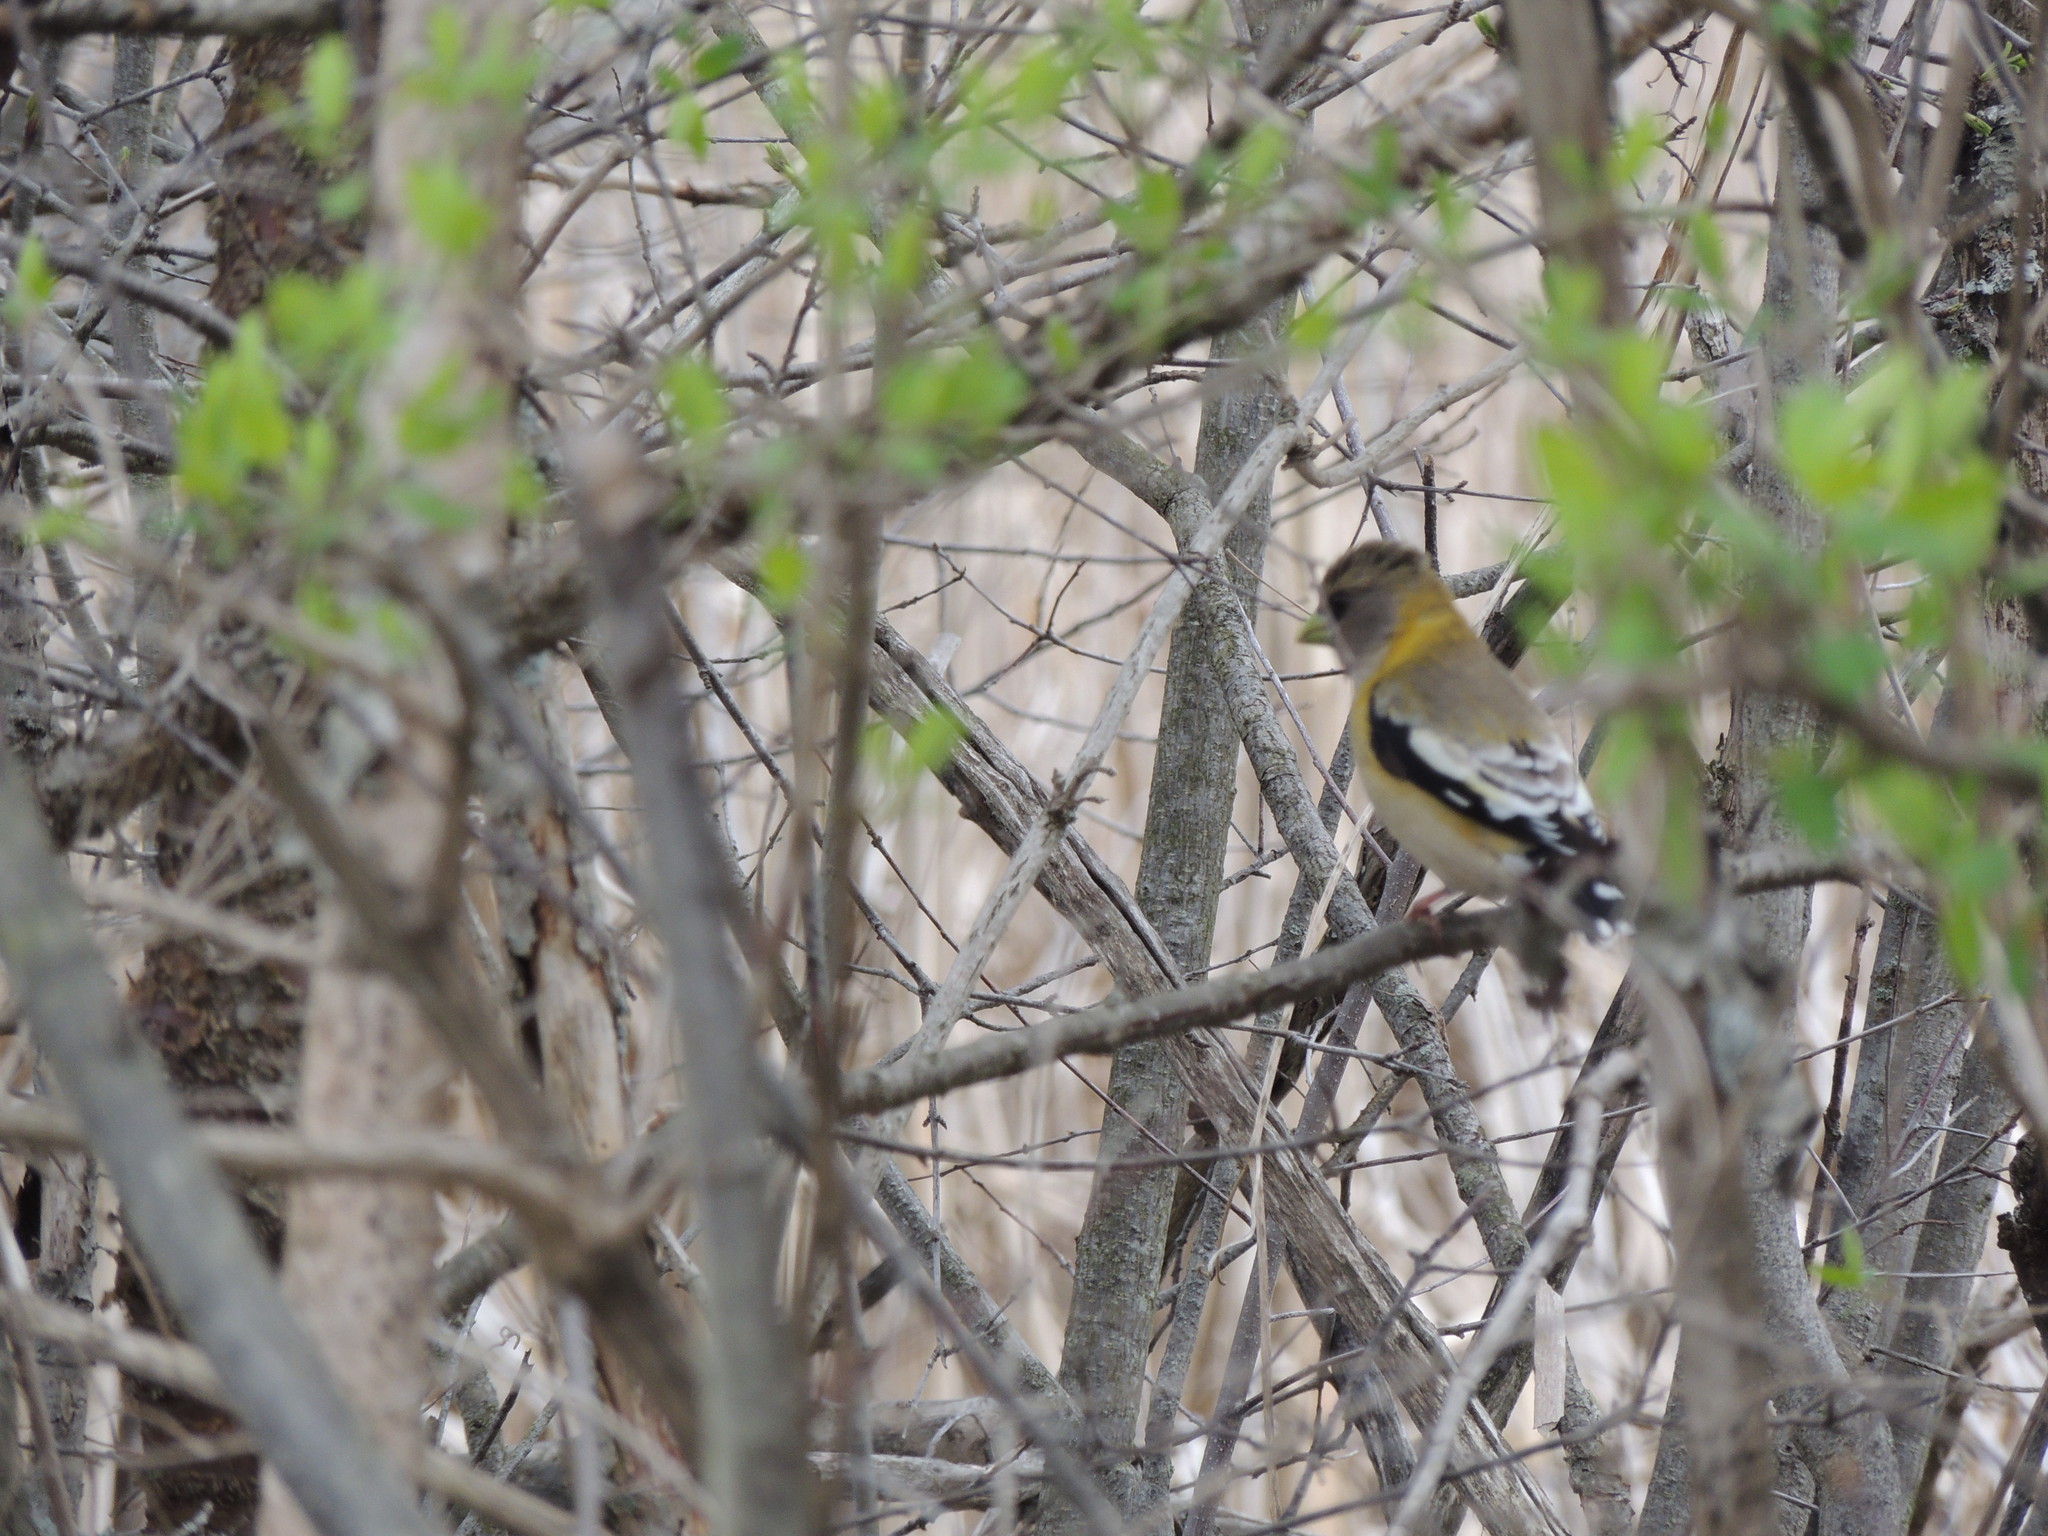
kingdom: Animalia
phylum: Chordata
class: Aves
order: Passeriformes
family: Fringillidae
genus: Hesperiphona
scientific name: Hesperiphona vespertina
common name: Evening grosbeak
